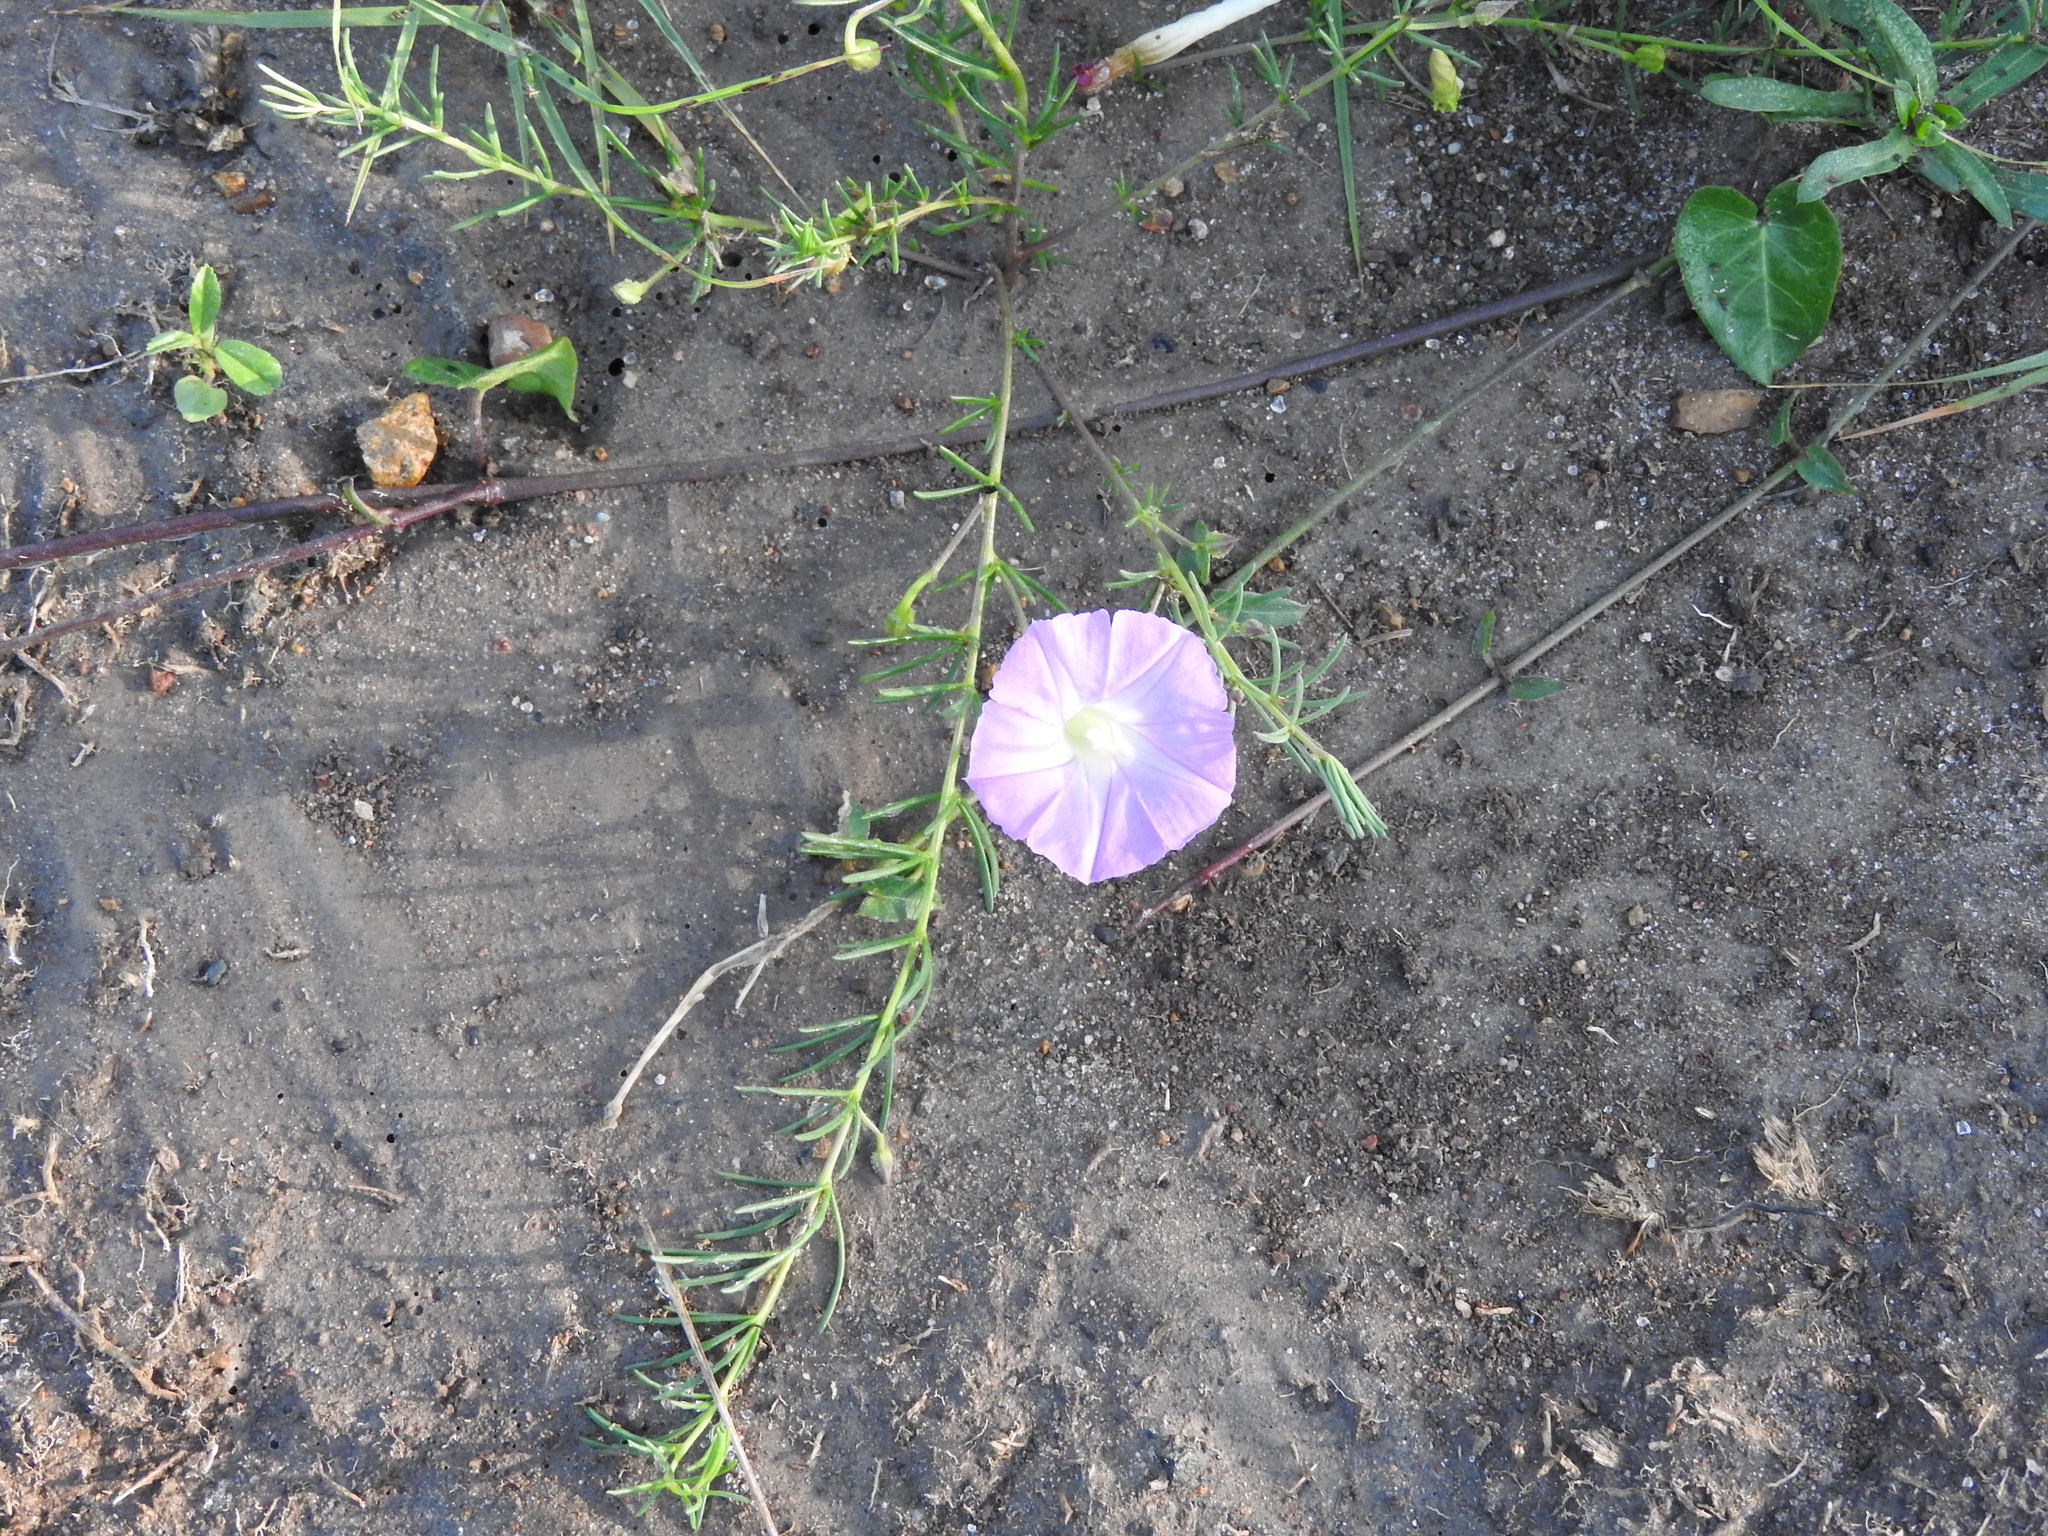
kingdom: Plantae
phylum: Tracheophyta
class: Magnoliopsida
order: Solanales
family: Convolvulaceae
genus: Ipomoea
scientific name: Ipomoea capillacea
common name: Purple morning-glory
